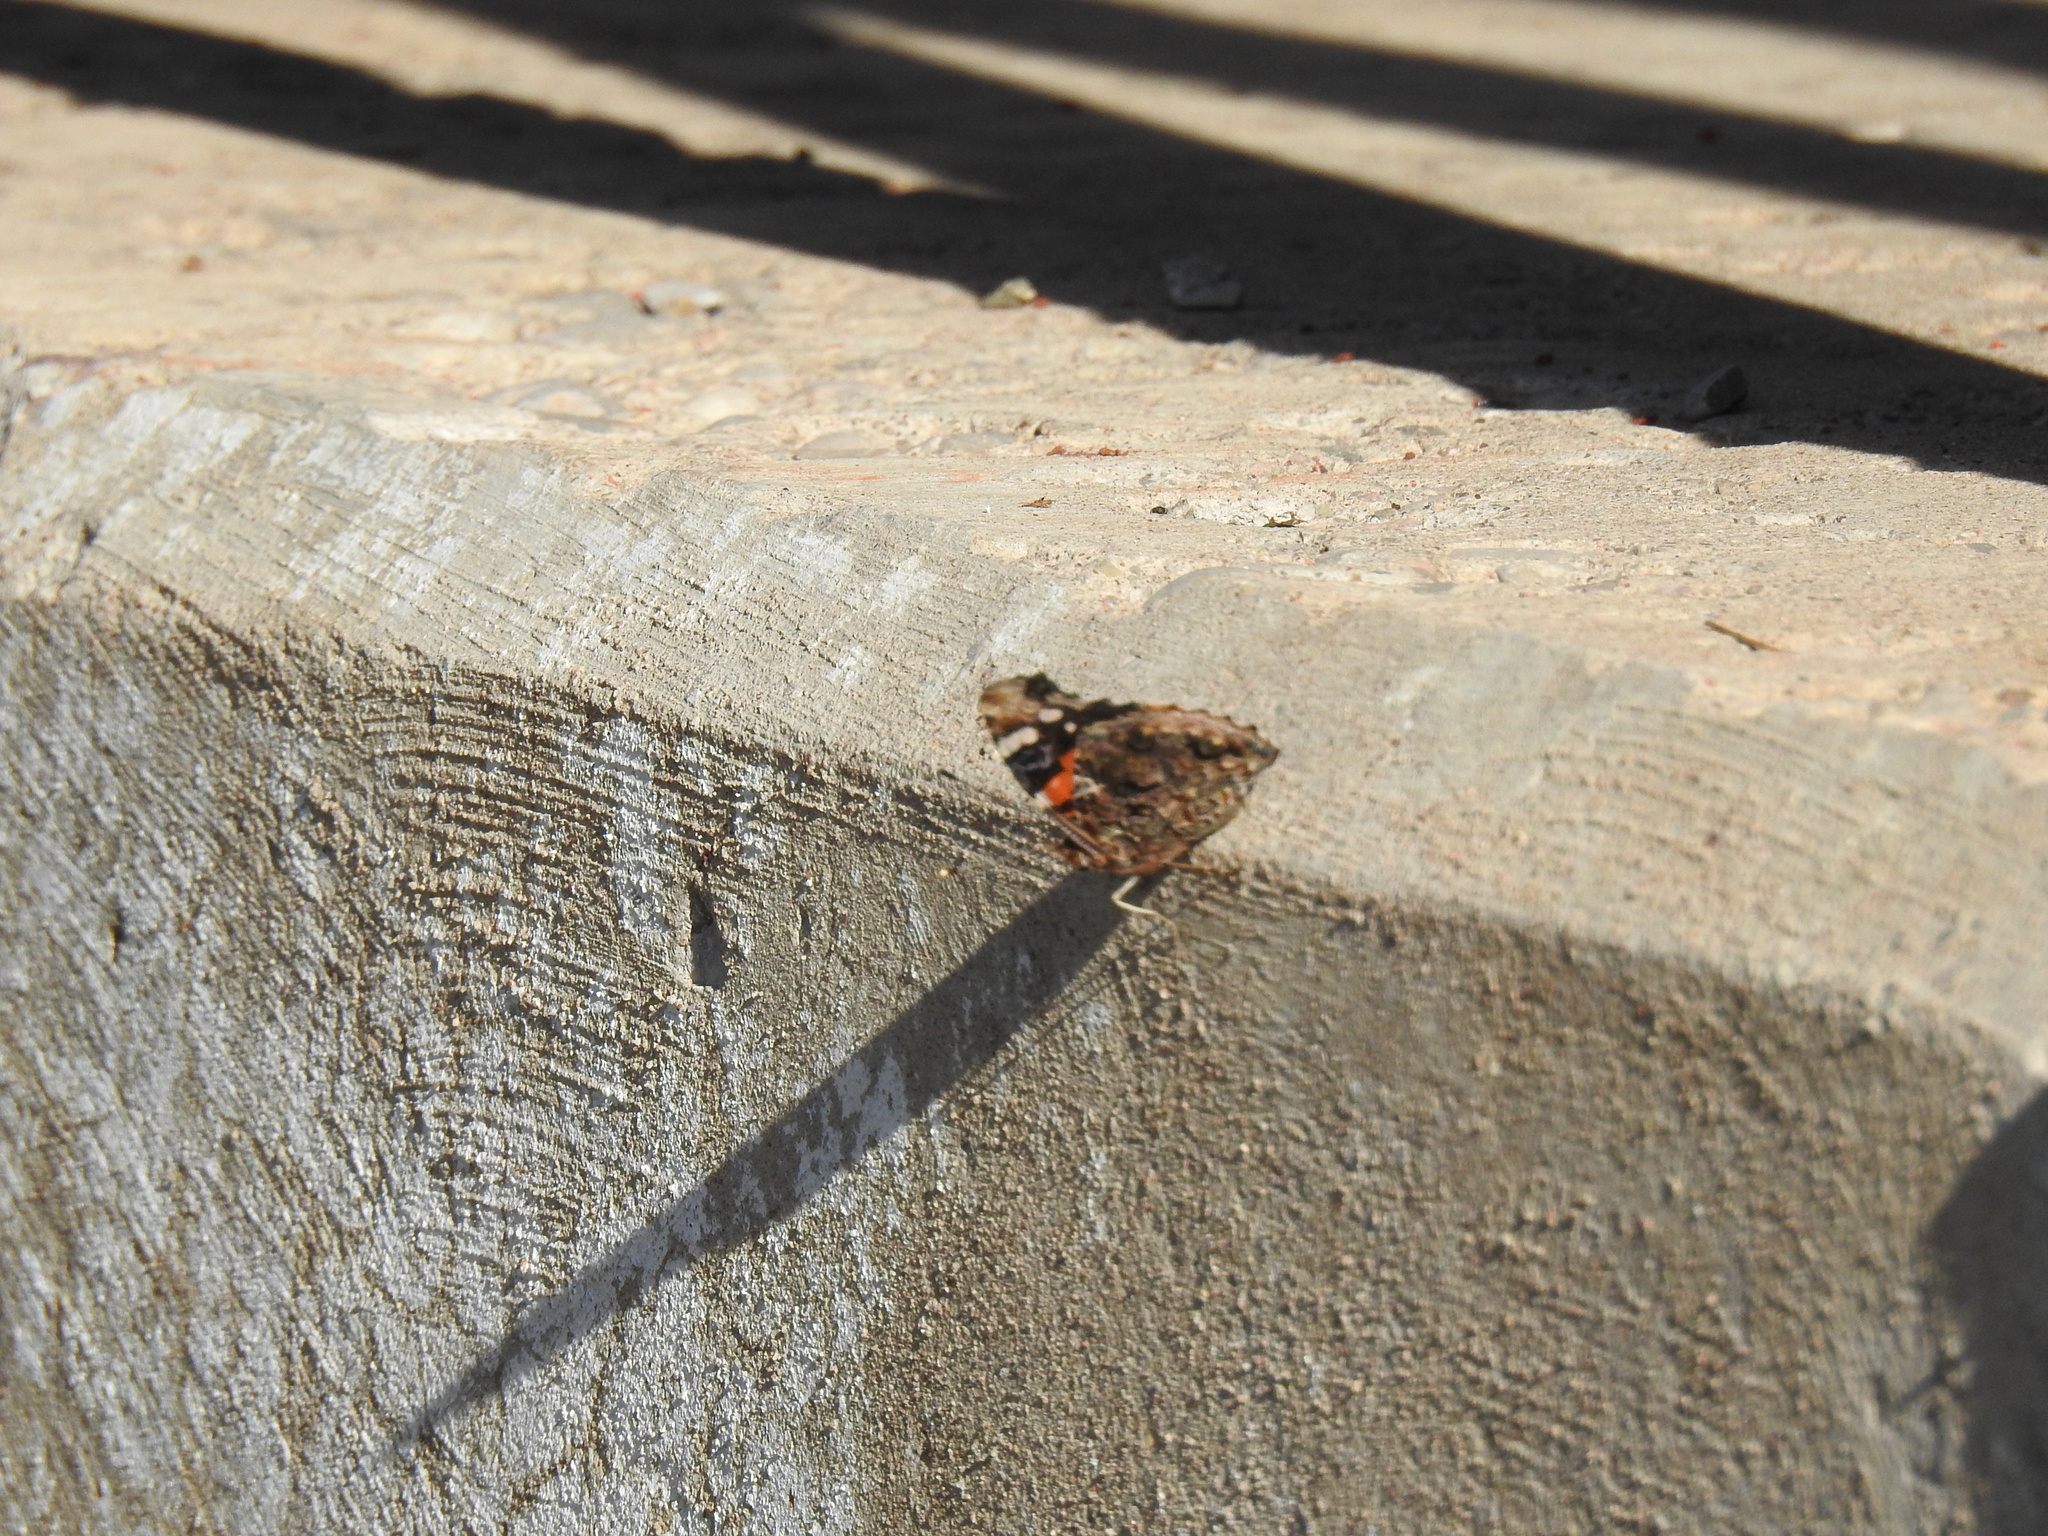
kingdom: Animalia
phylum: Arthropoda
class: Insecta
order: Lepidoptera
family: Nymphalidae
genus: Vanessa
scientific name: Vanessa atalanta
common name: Red admiral
